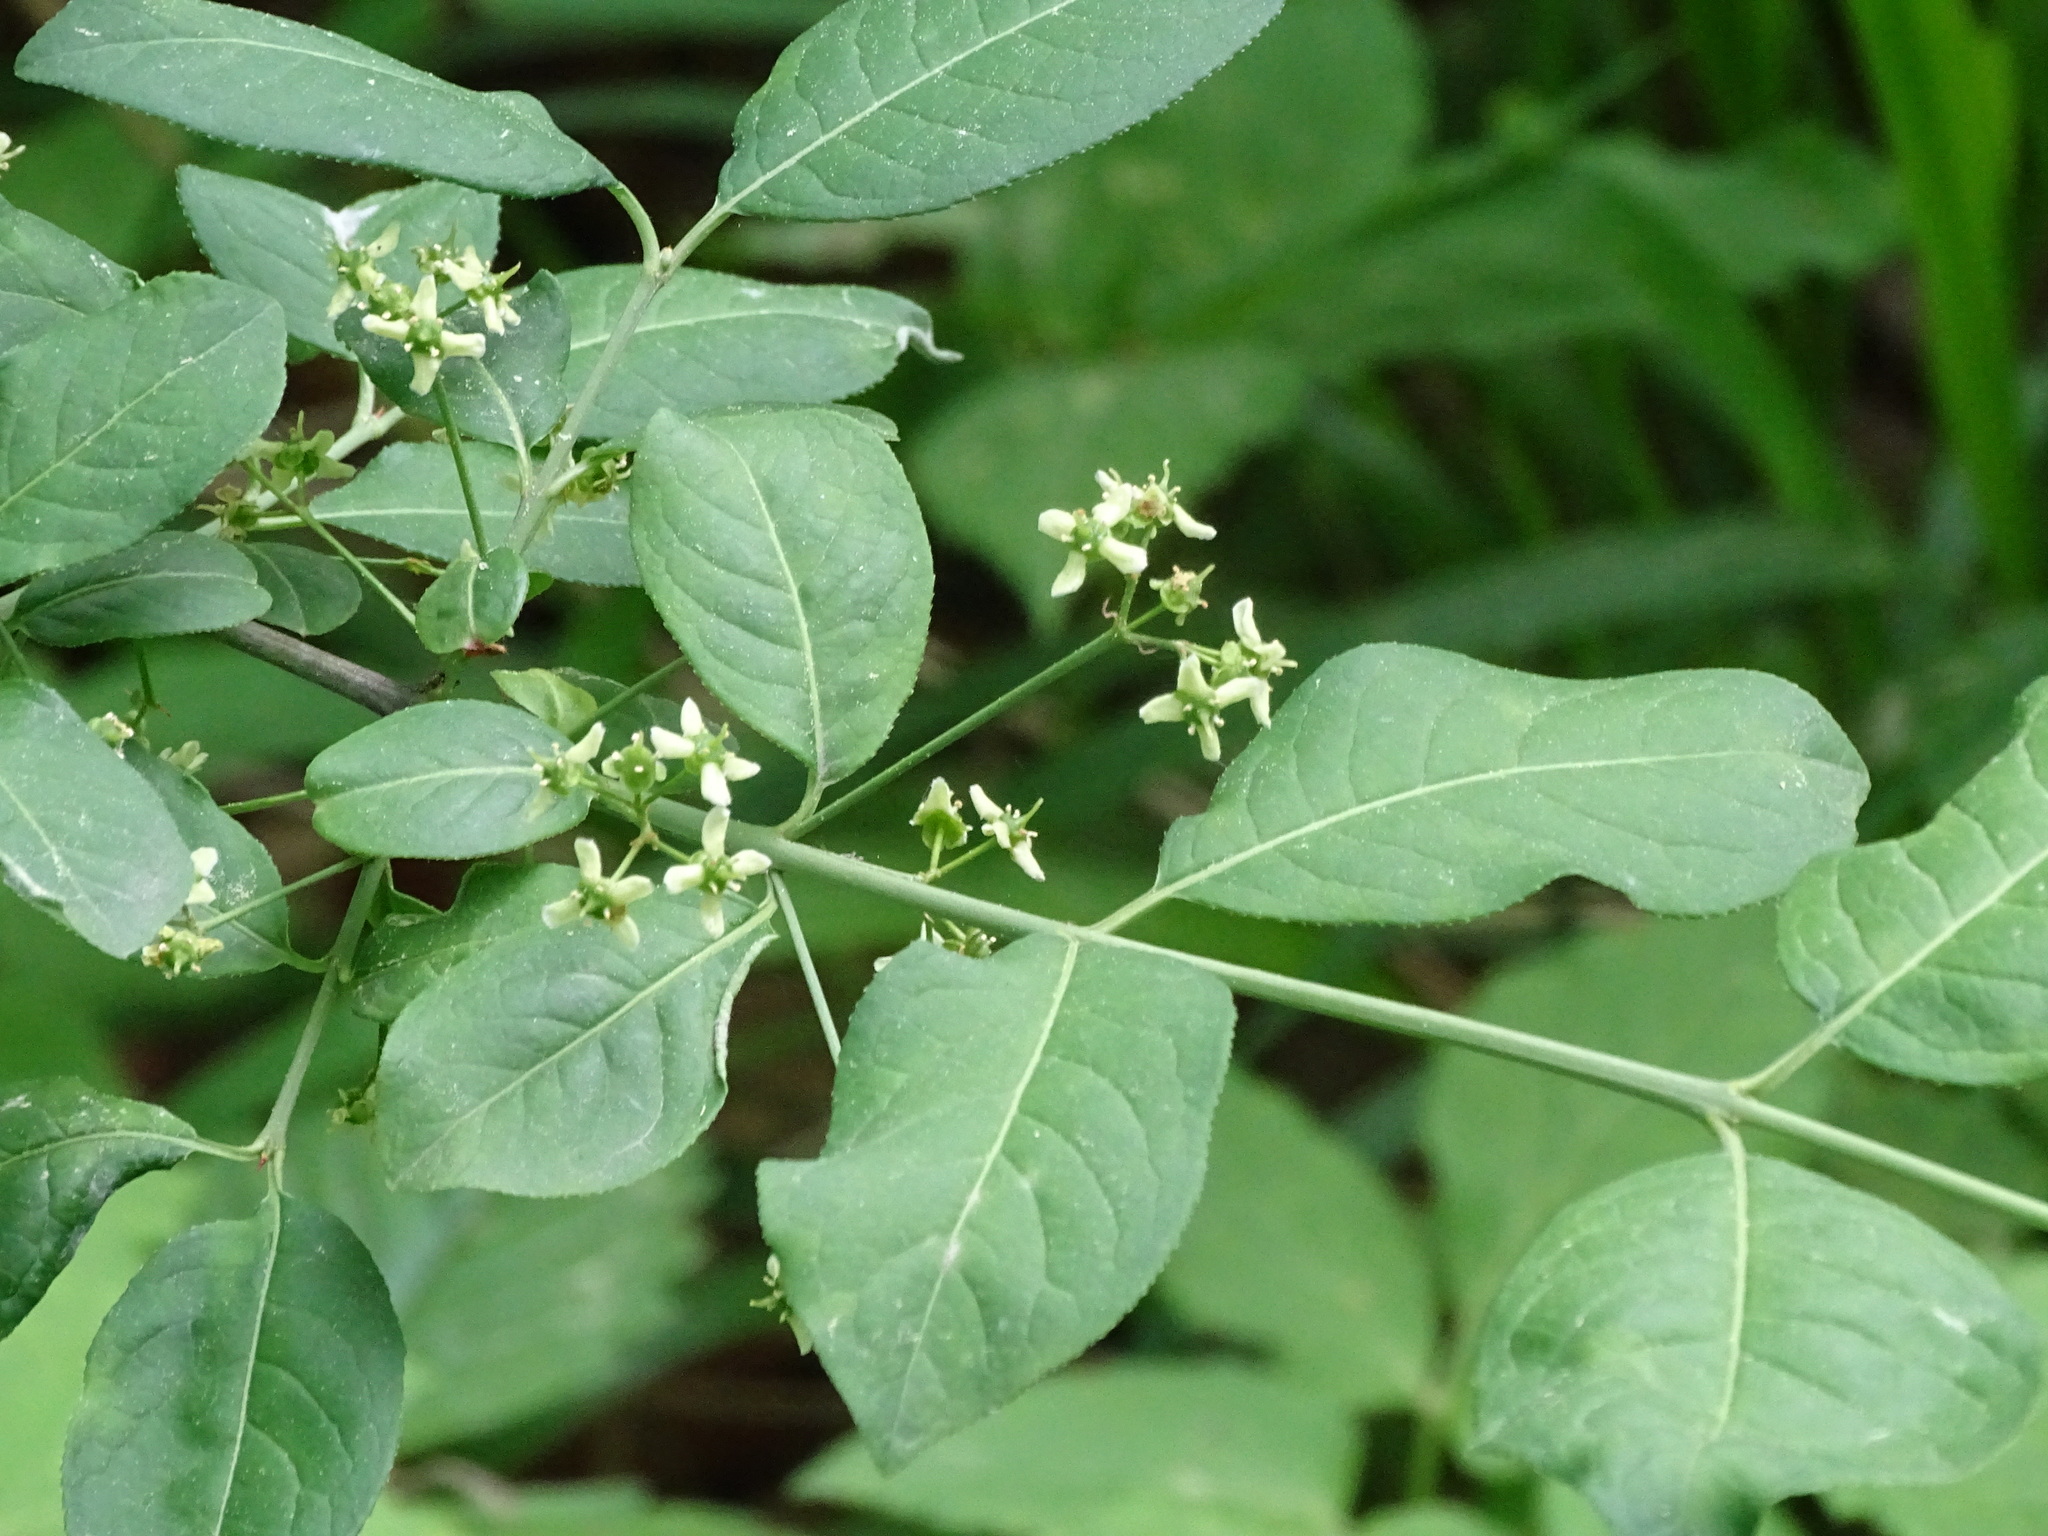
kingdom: Plantae
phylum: Tracheophyta
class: Magnoliopsida
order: Celastrales
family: Celastraceae
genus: Euonymus
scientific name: Euonymus europaeus
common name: Spindle
